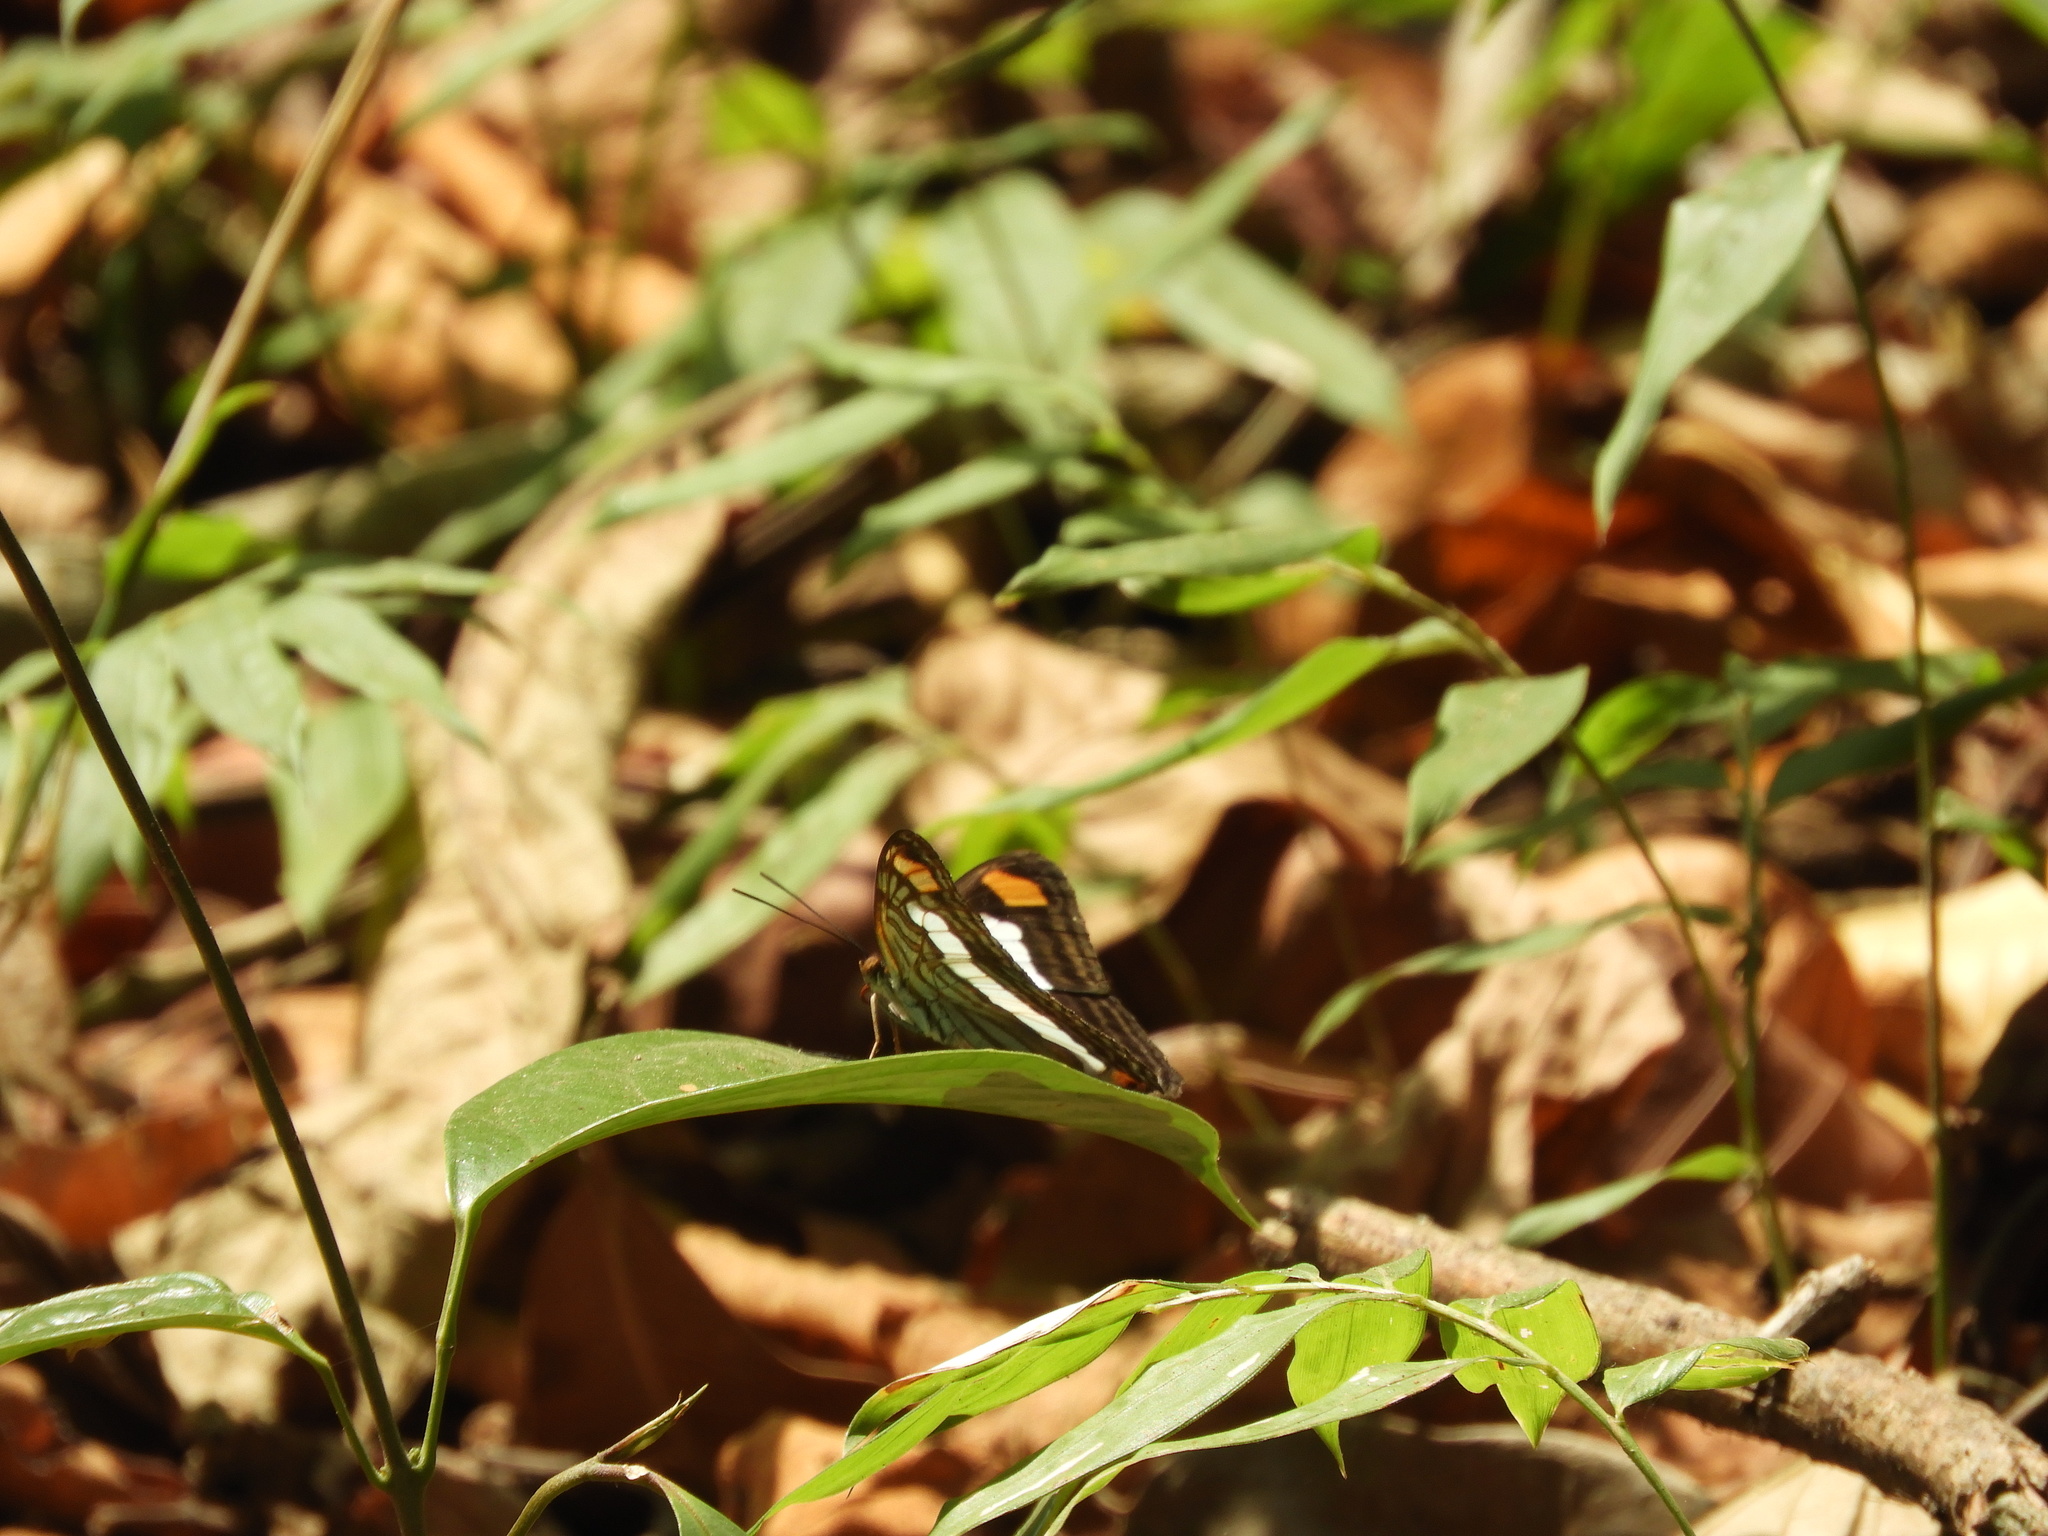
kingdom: Animalia
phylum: Arthropoda
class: Insecta
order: Lepidoptera
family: Nymphalidae
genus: Limenitis
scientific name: Limenitis Adelpha basiloides
